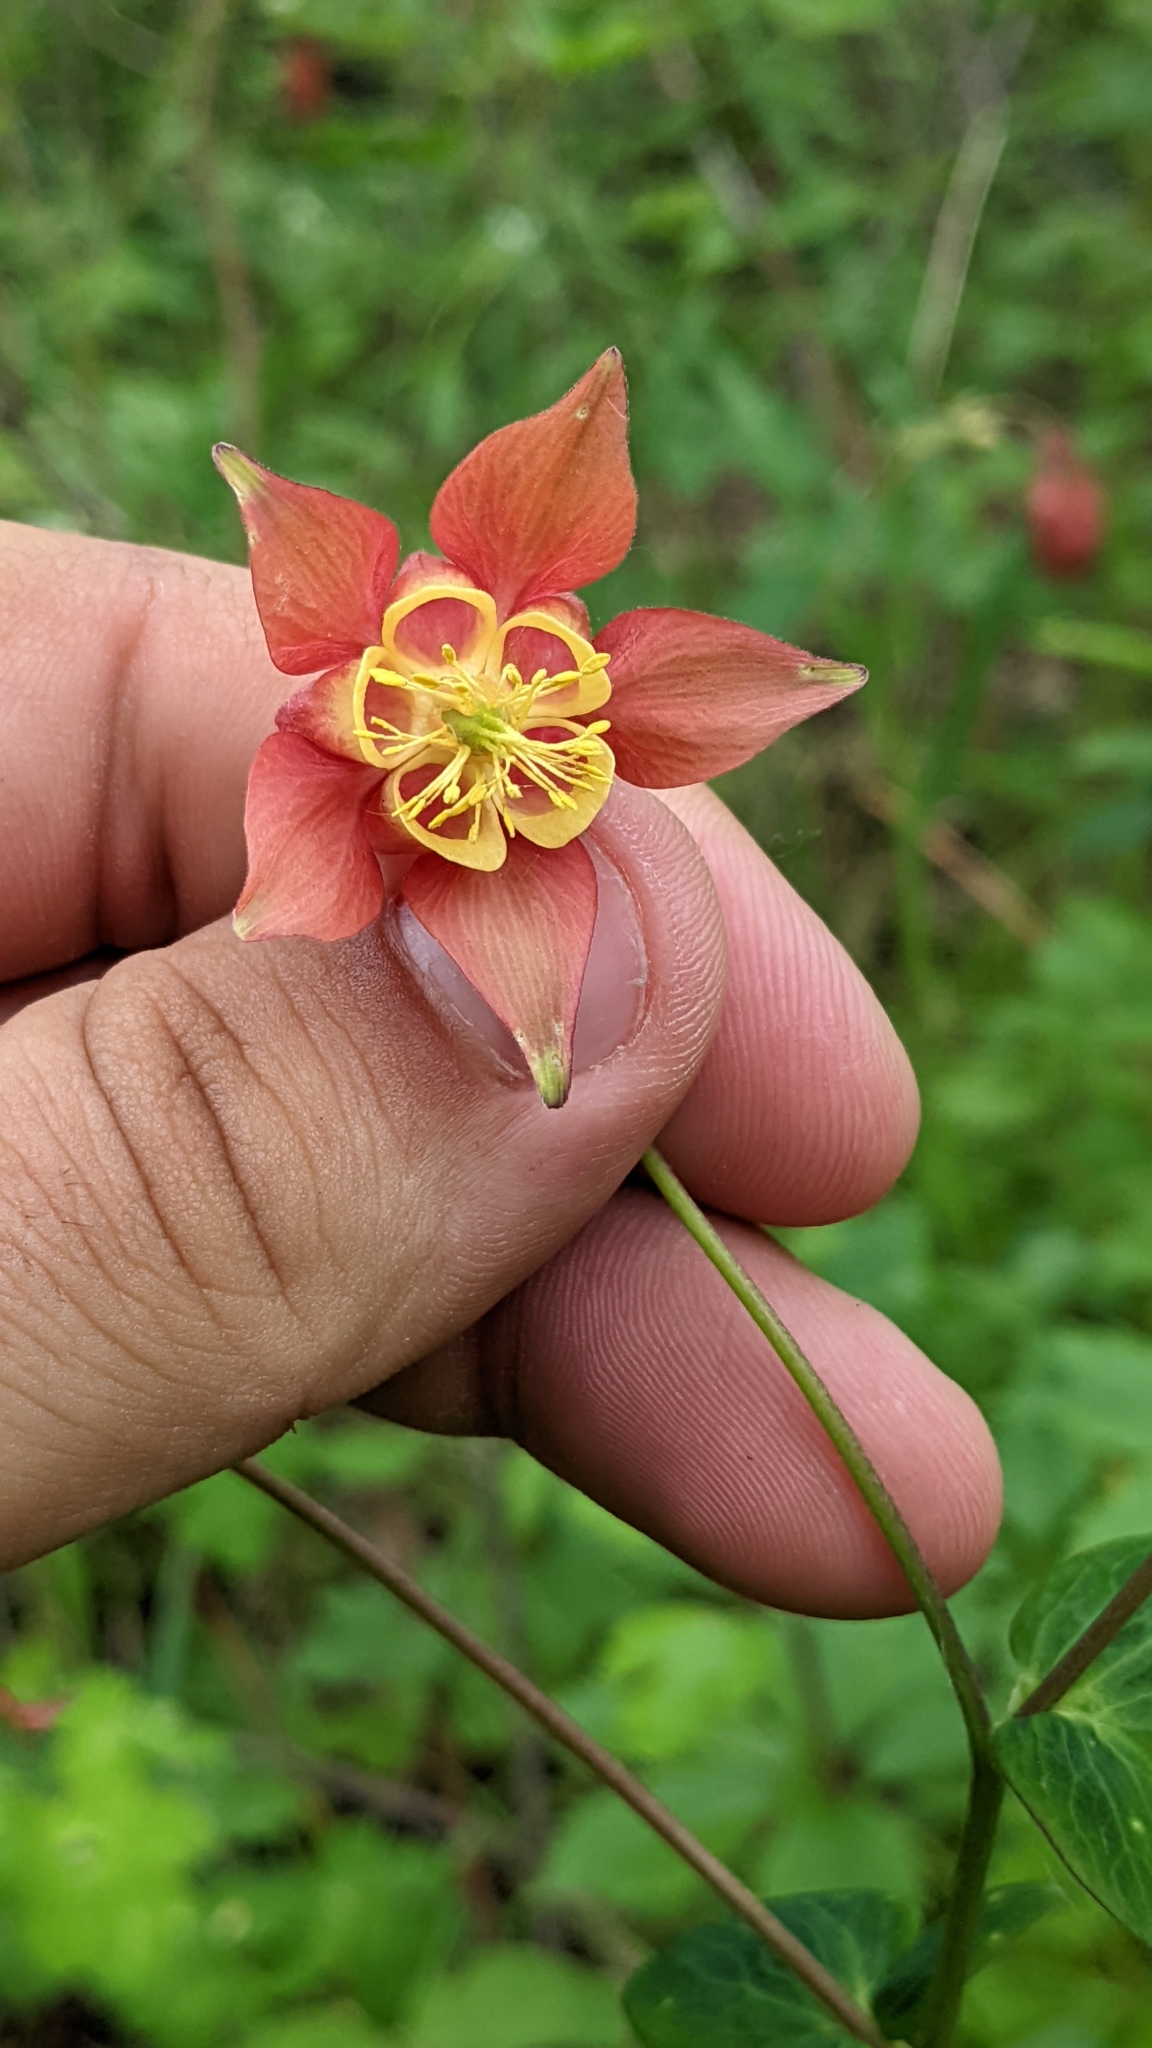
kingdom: Plantae
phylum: Tracheophyta
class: Magnoliopsida
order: Ranunculales
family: Ranunculaceae
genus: Aquilegia
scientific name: Aquilegia canadensis
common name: American columbine
